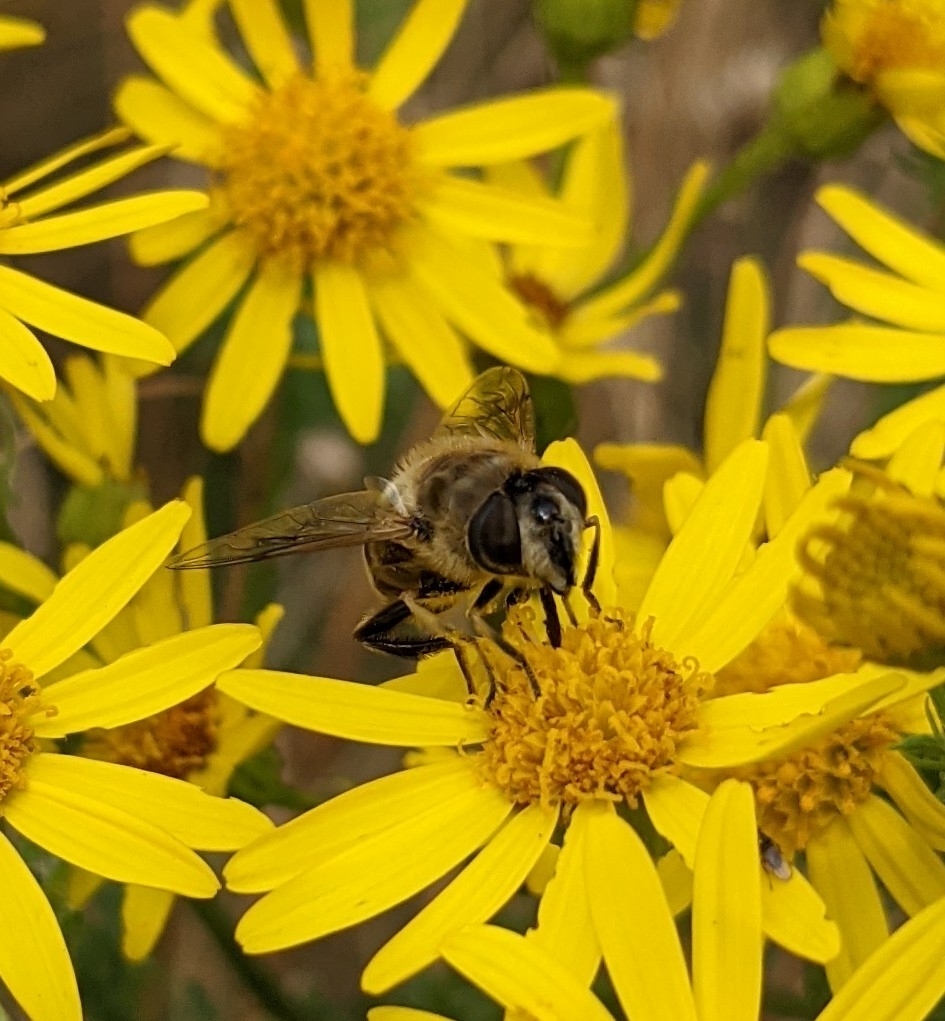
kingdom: Animalia
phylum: Arthropoda
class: Insecta
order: Diptera
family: Syrphidae
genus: Eristalis
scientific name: Eristalis tenax
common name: Drone fly
